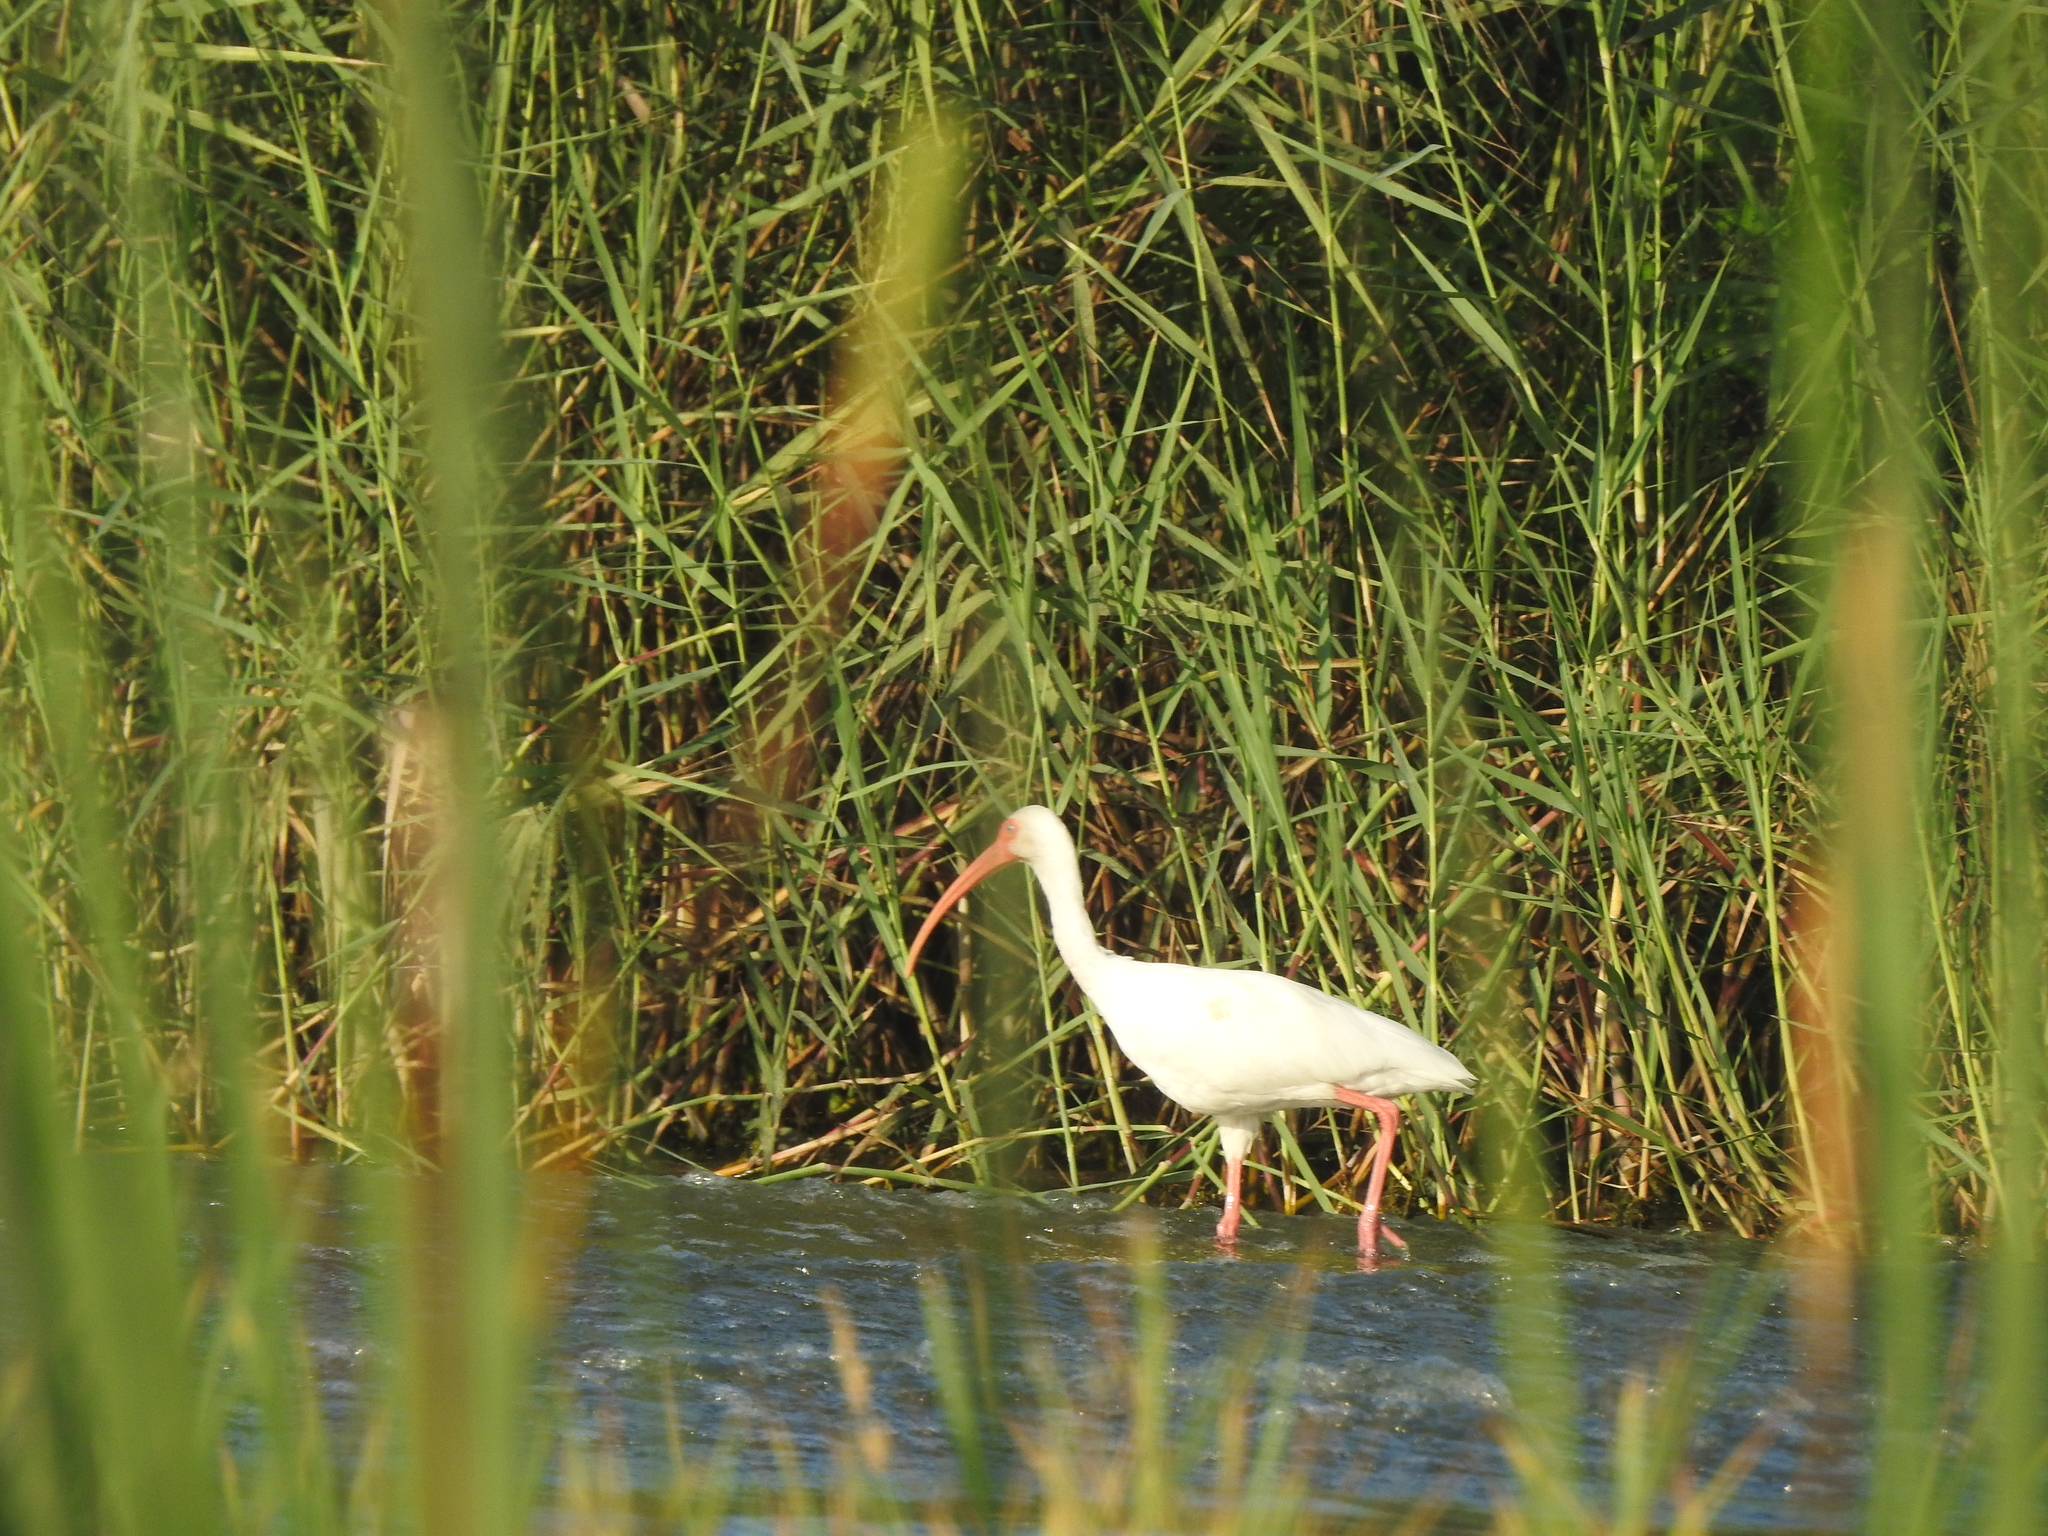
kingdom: Animalia
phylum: Chordata
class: Aves
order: Pelecaniformes
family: Threskiornithidae
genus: Eudocimus
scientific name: Eudocimus albus
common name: White ibis
